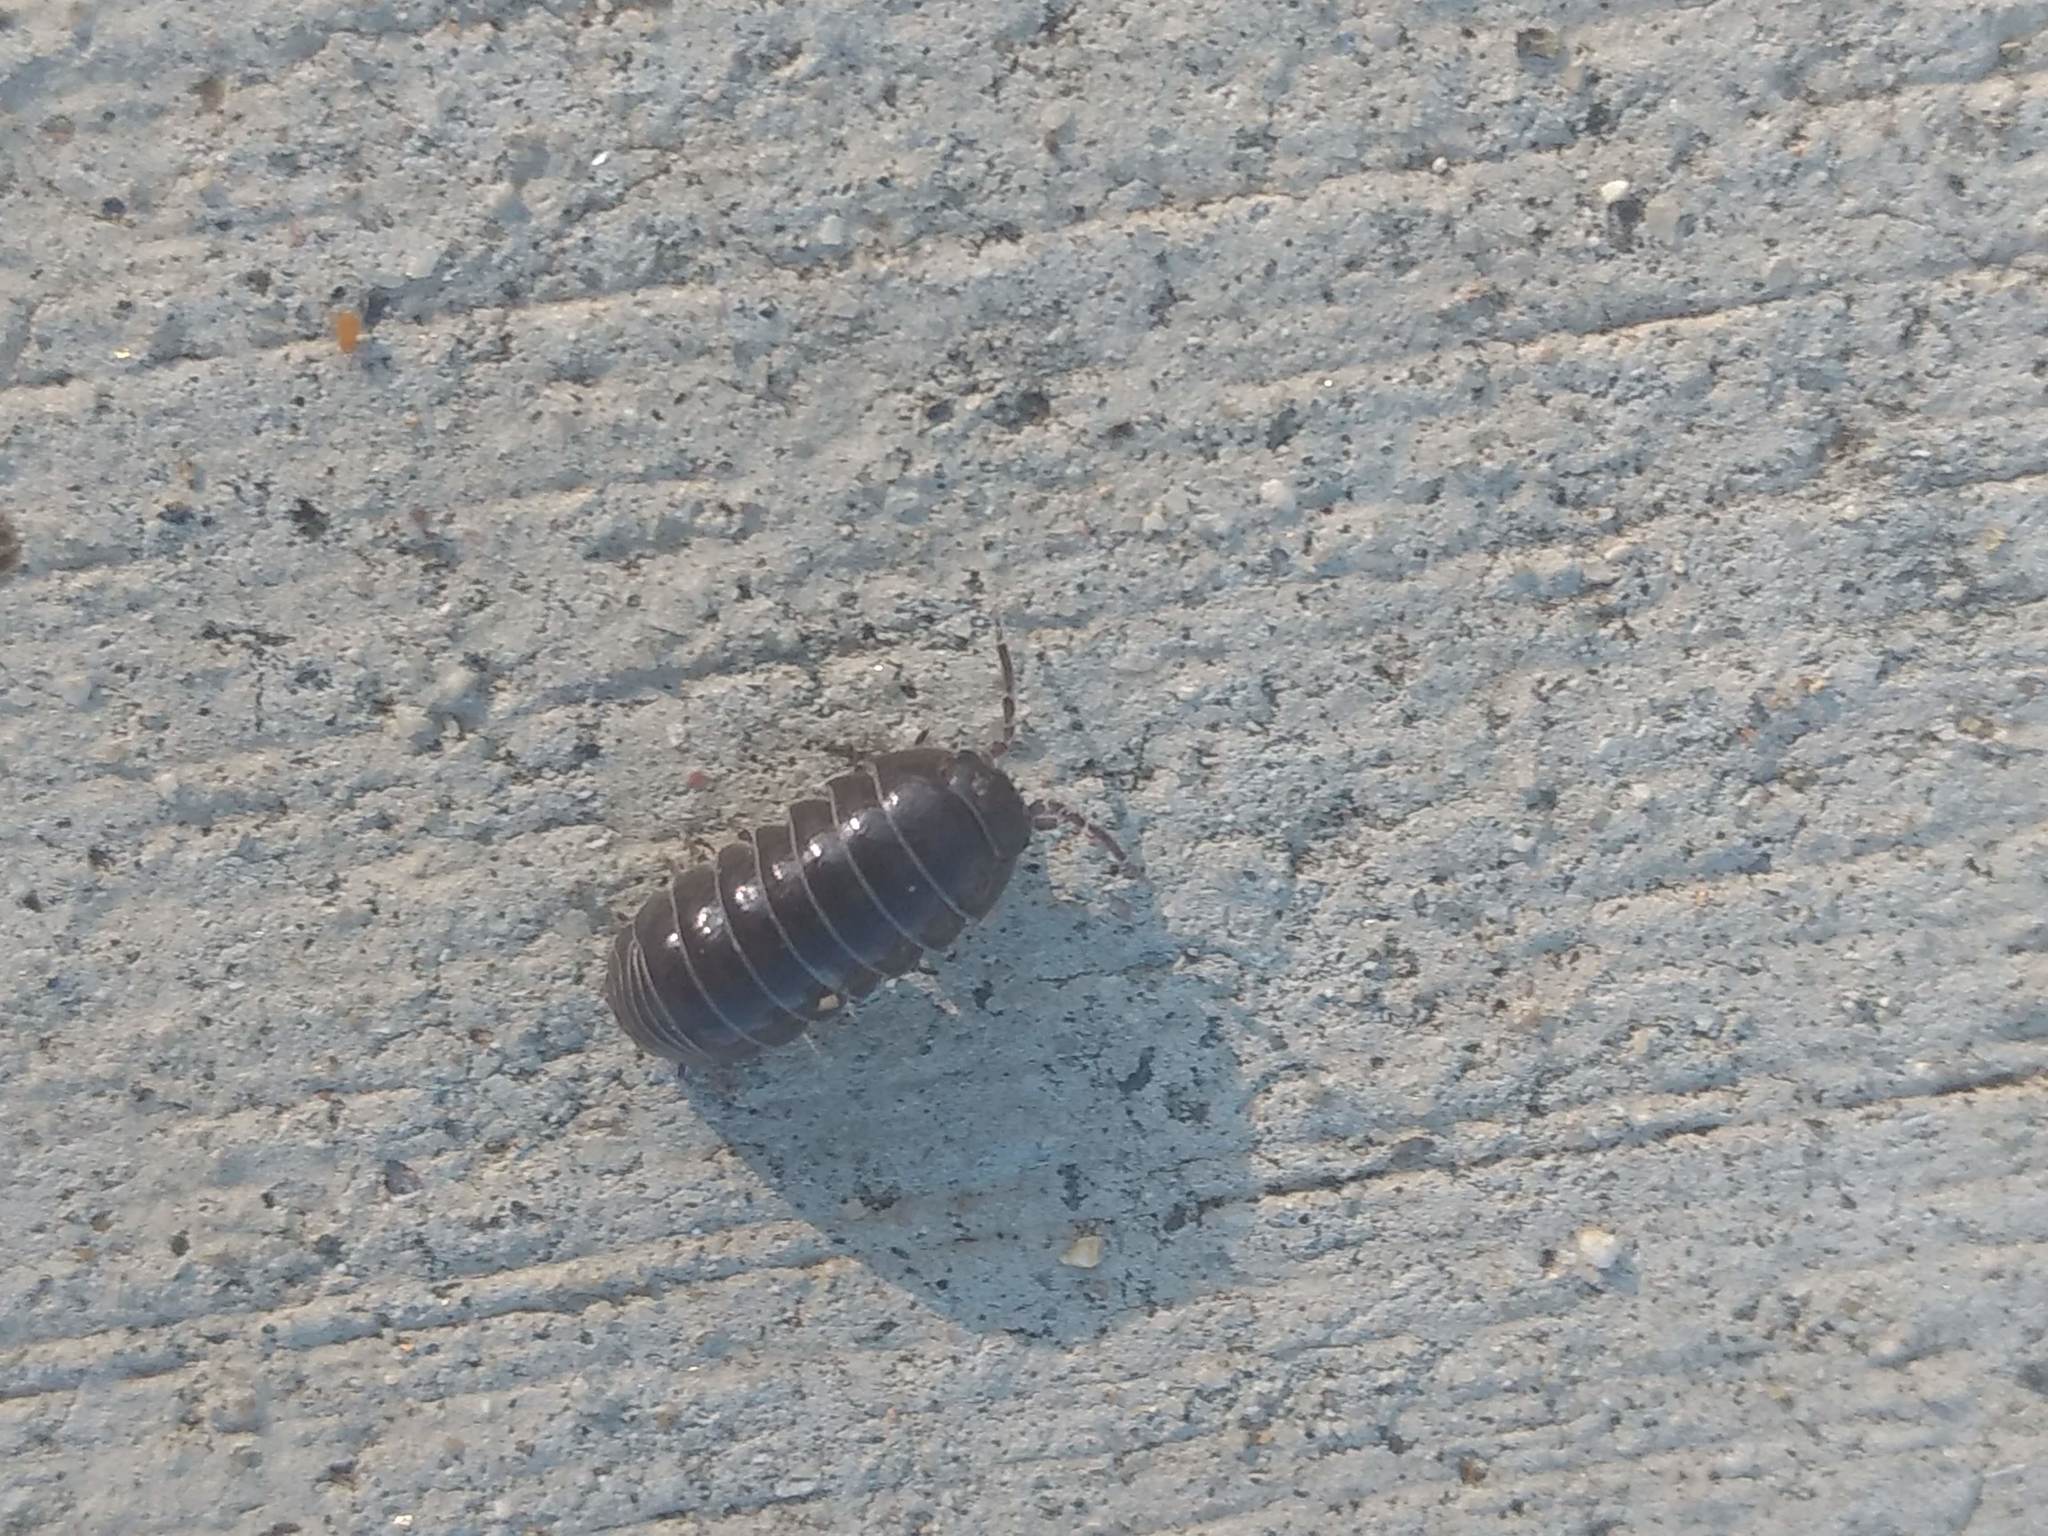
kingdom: Animalia
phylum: Arthropoda
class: Malacostraca
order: Isopoda
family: Armadillidiidae
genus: Armadillidium
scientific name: Armadillidium vulgare
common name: Common pill woodlouse
